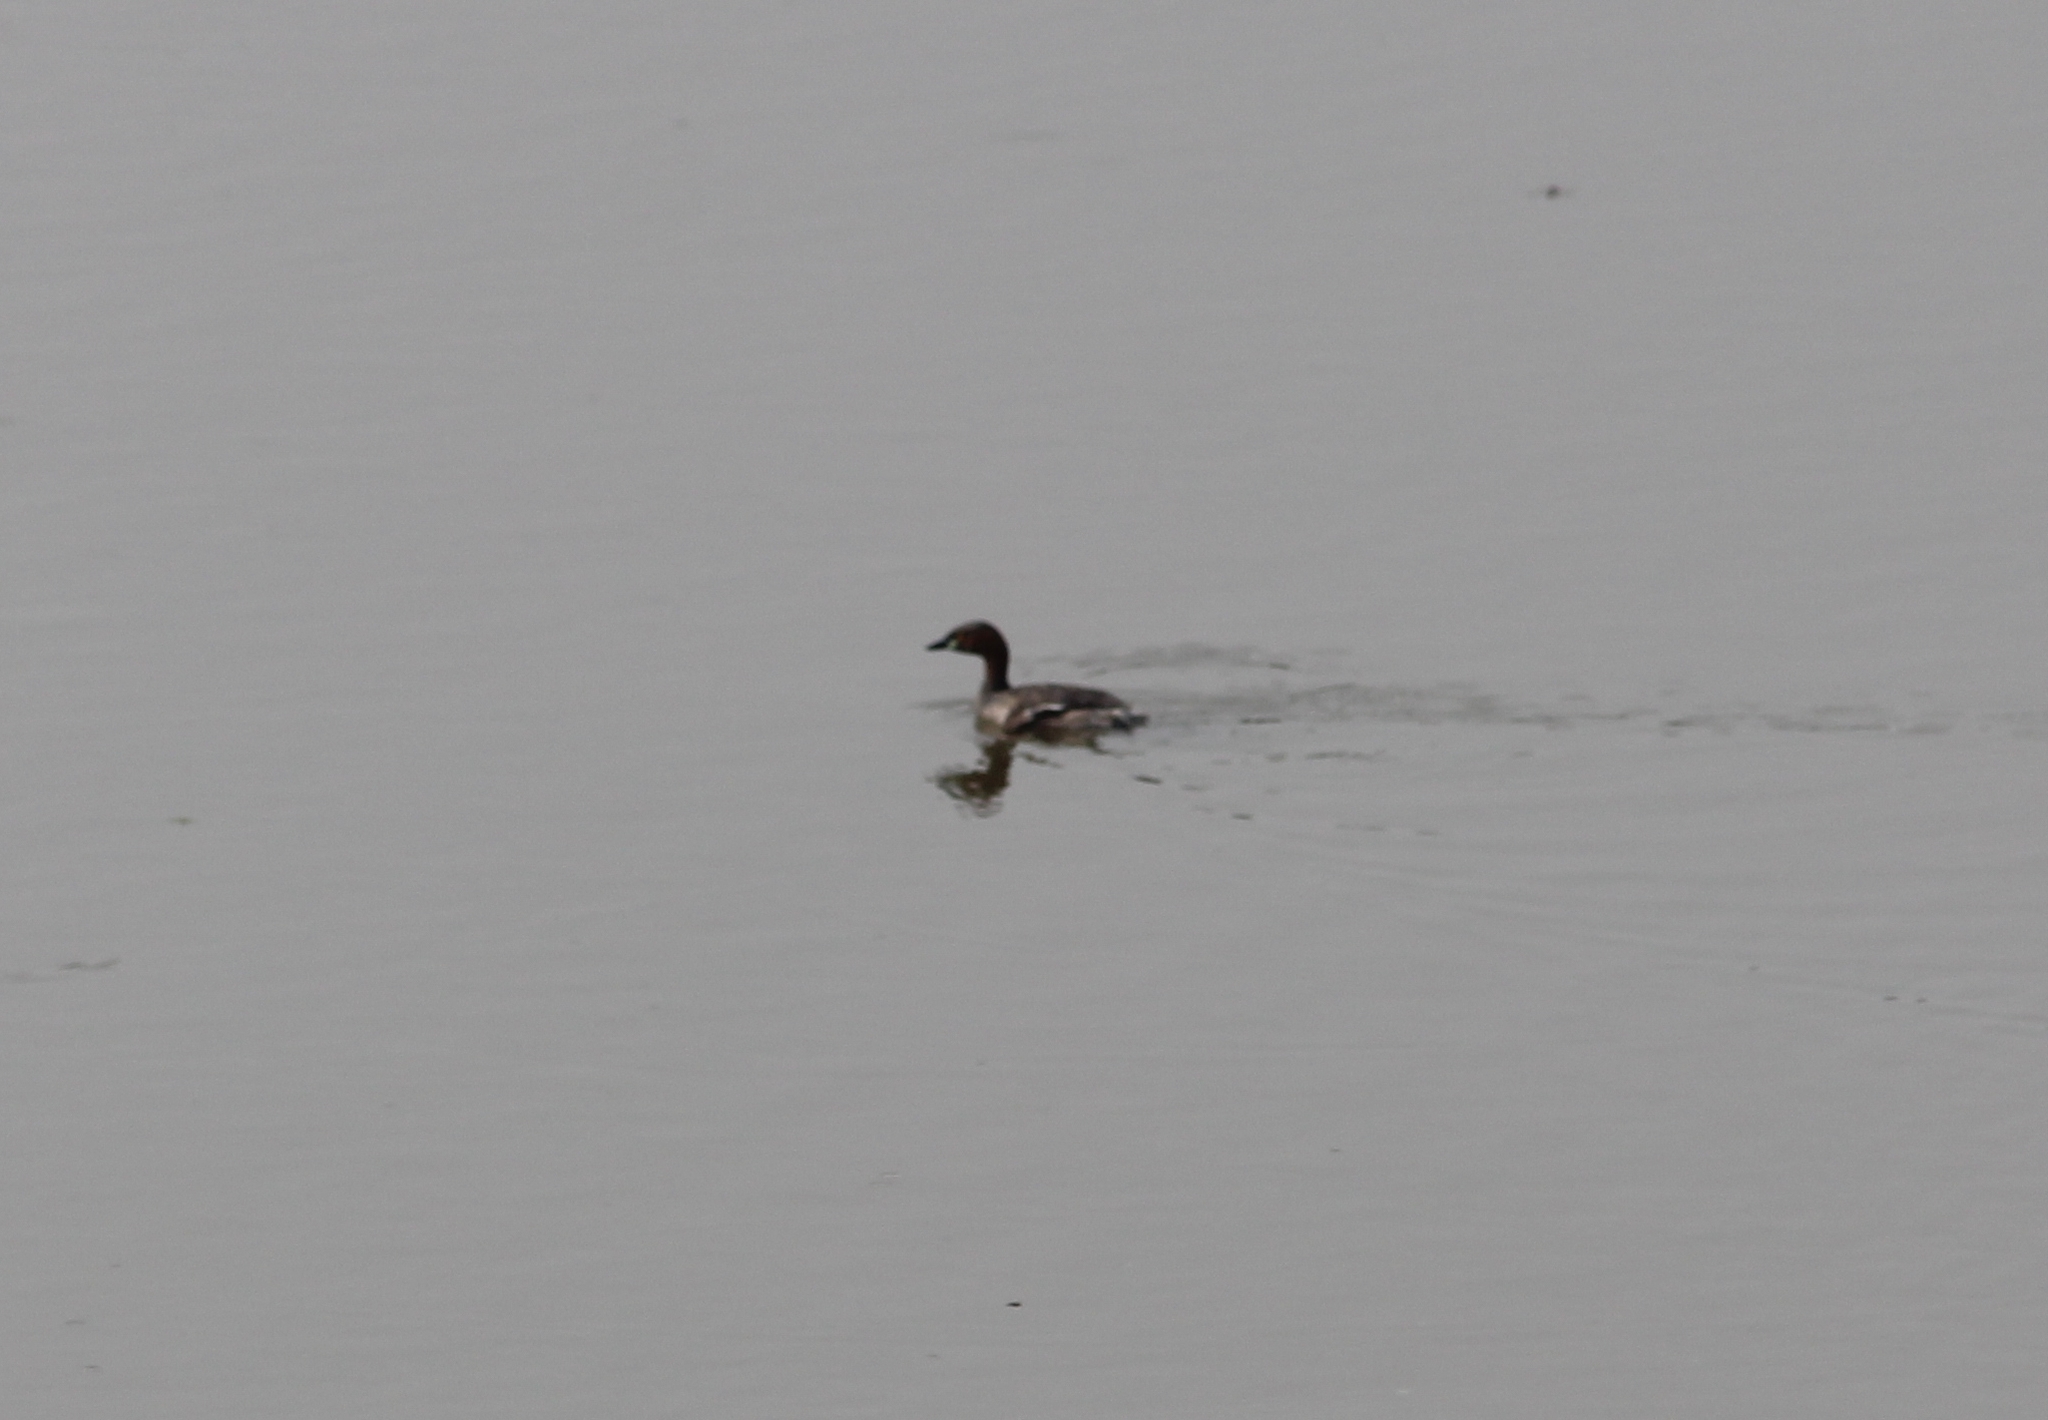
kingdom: Animalia
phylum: Chordata
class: Aves
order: Podicipediformes
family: Podicipedidae
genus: Tachybaptus
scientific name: Tachybaptus ruficollis
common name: Little grebe
